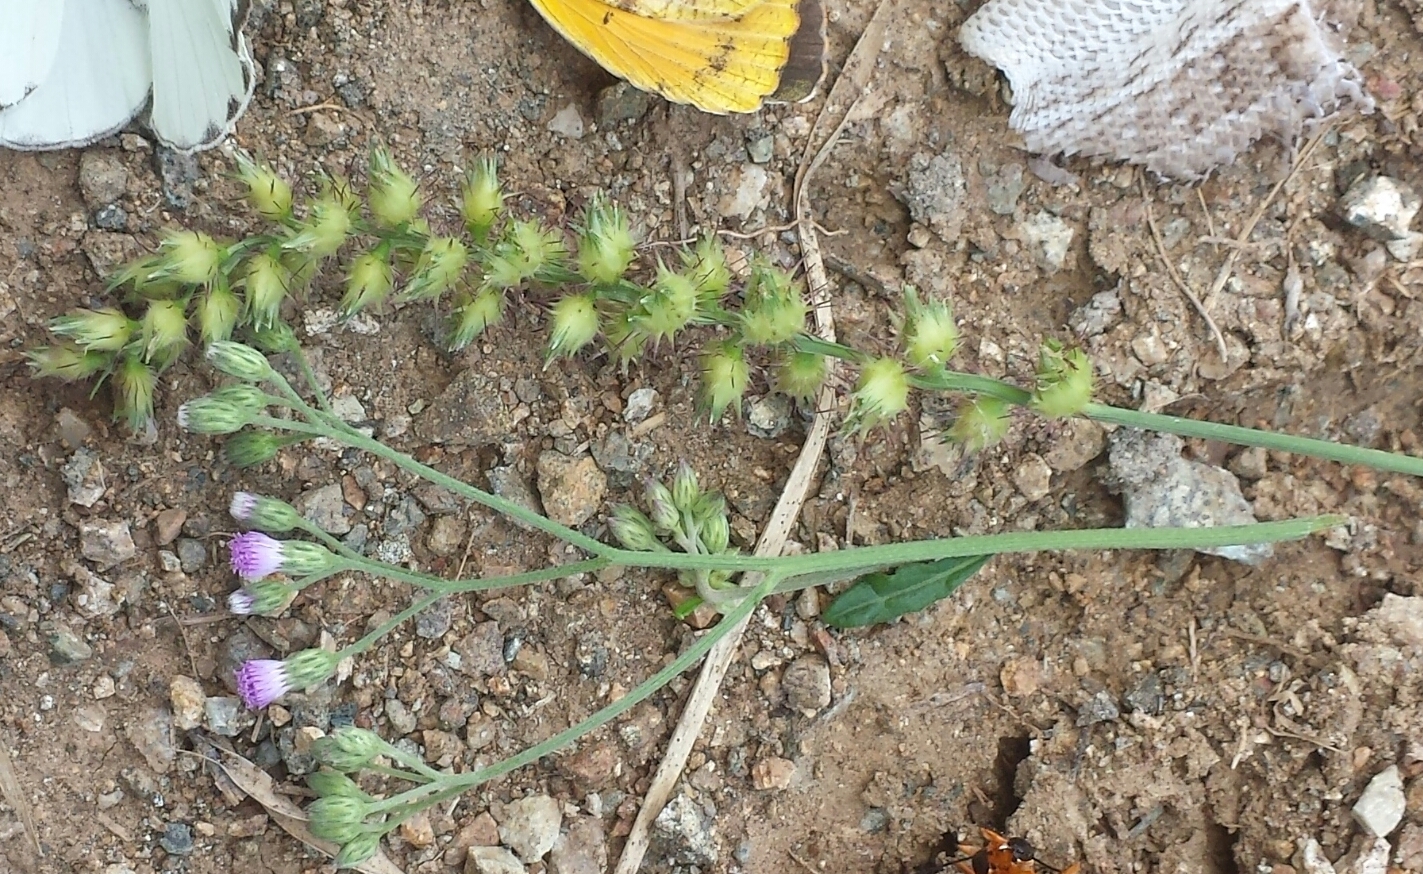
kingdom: Plantae
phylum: Tracheophyta
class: Magnoliopsida
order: Asterales
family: Asteraceae
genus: Cyanthillium
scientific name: Cyanthillium cinereum
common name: Little ironweed
